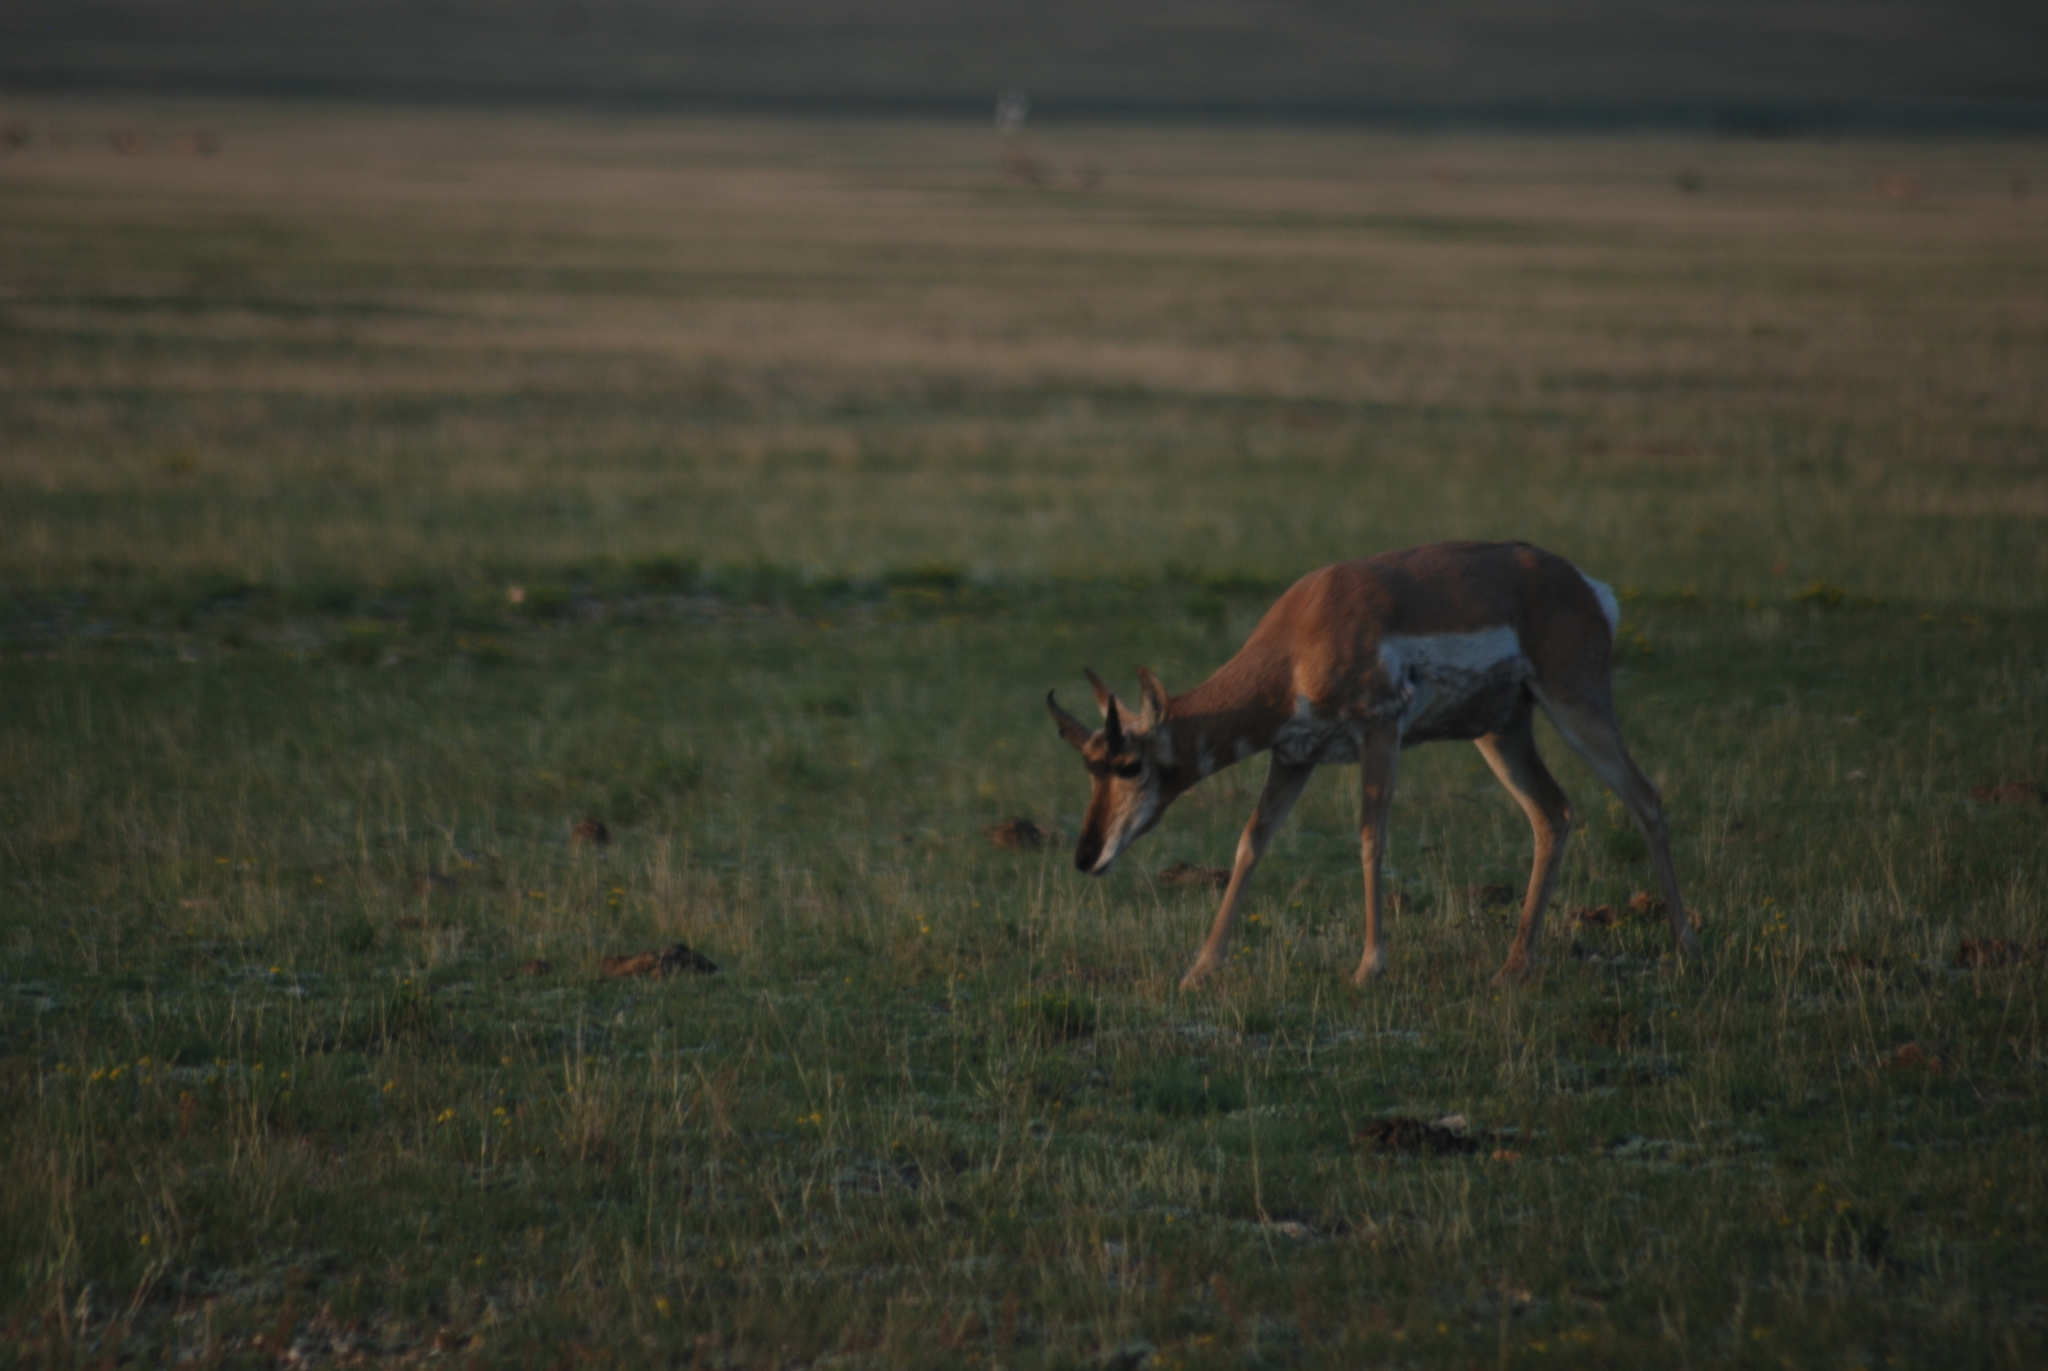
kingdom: Animalia
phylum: Chordata
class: Mammalia
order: Artiodactyla
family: Antilocapridae
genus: Antilocapra
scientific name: Antilocapra americana
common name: Pronghorn
